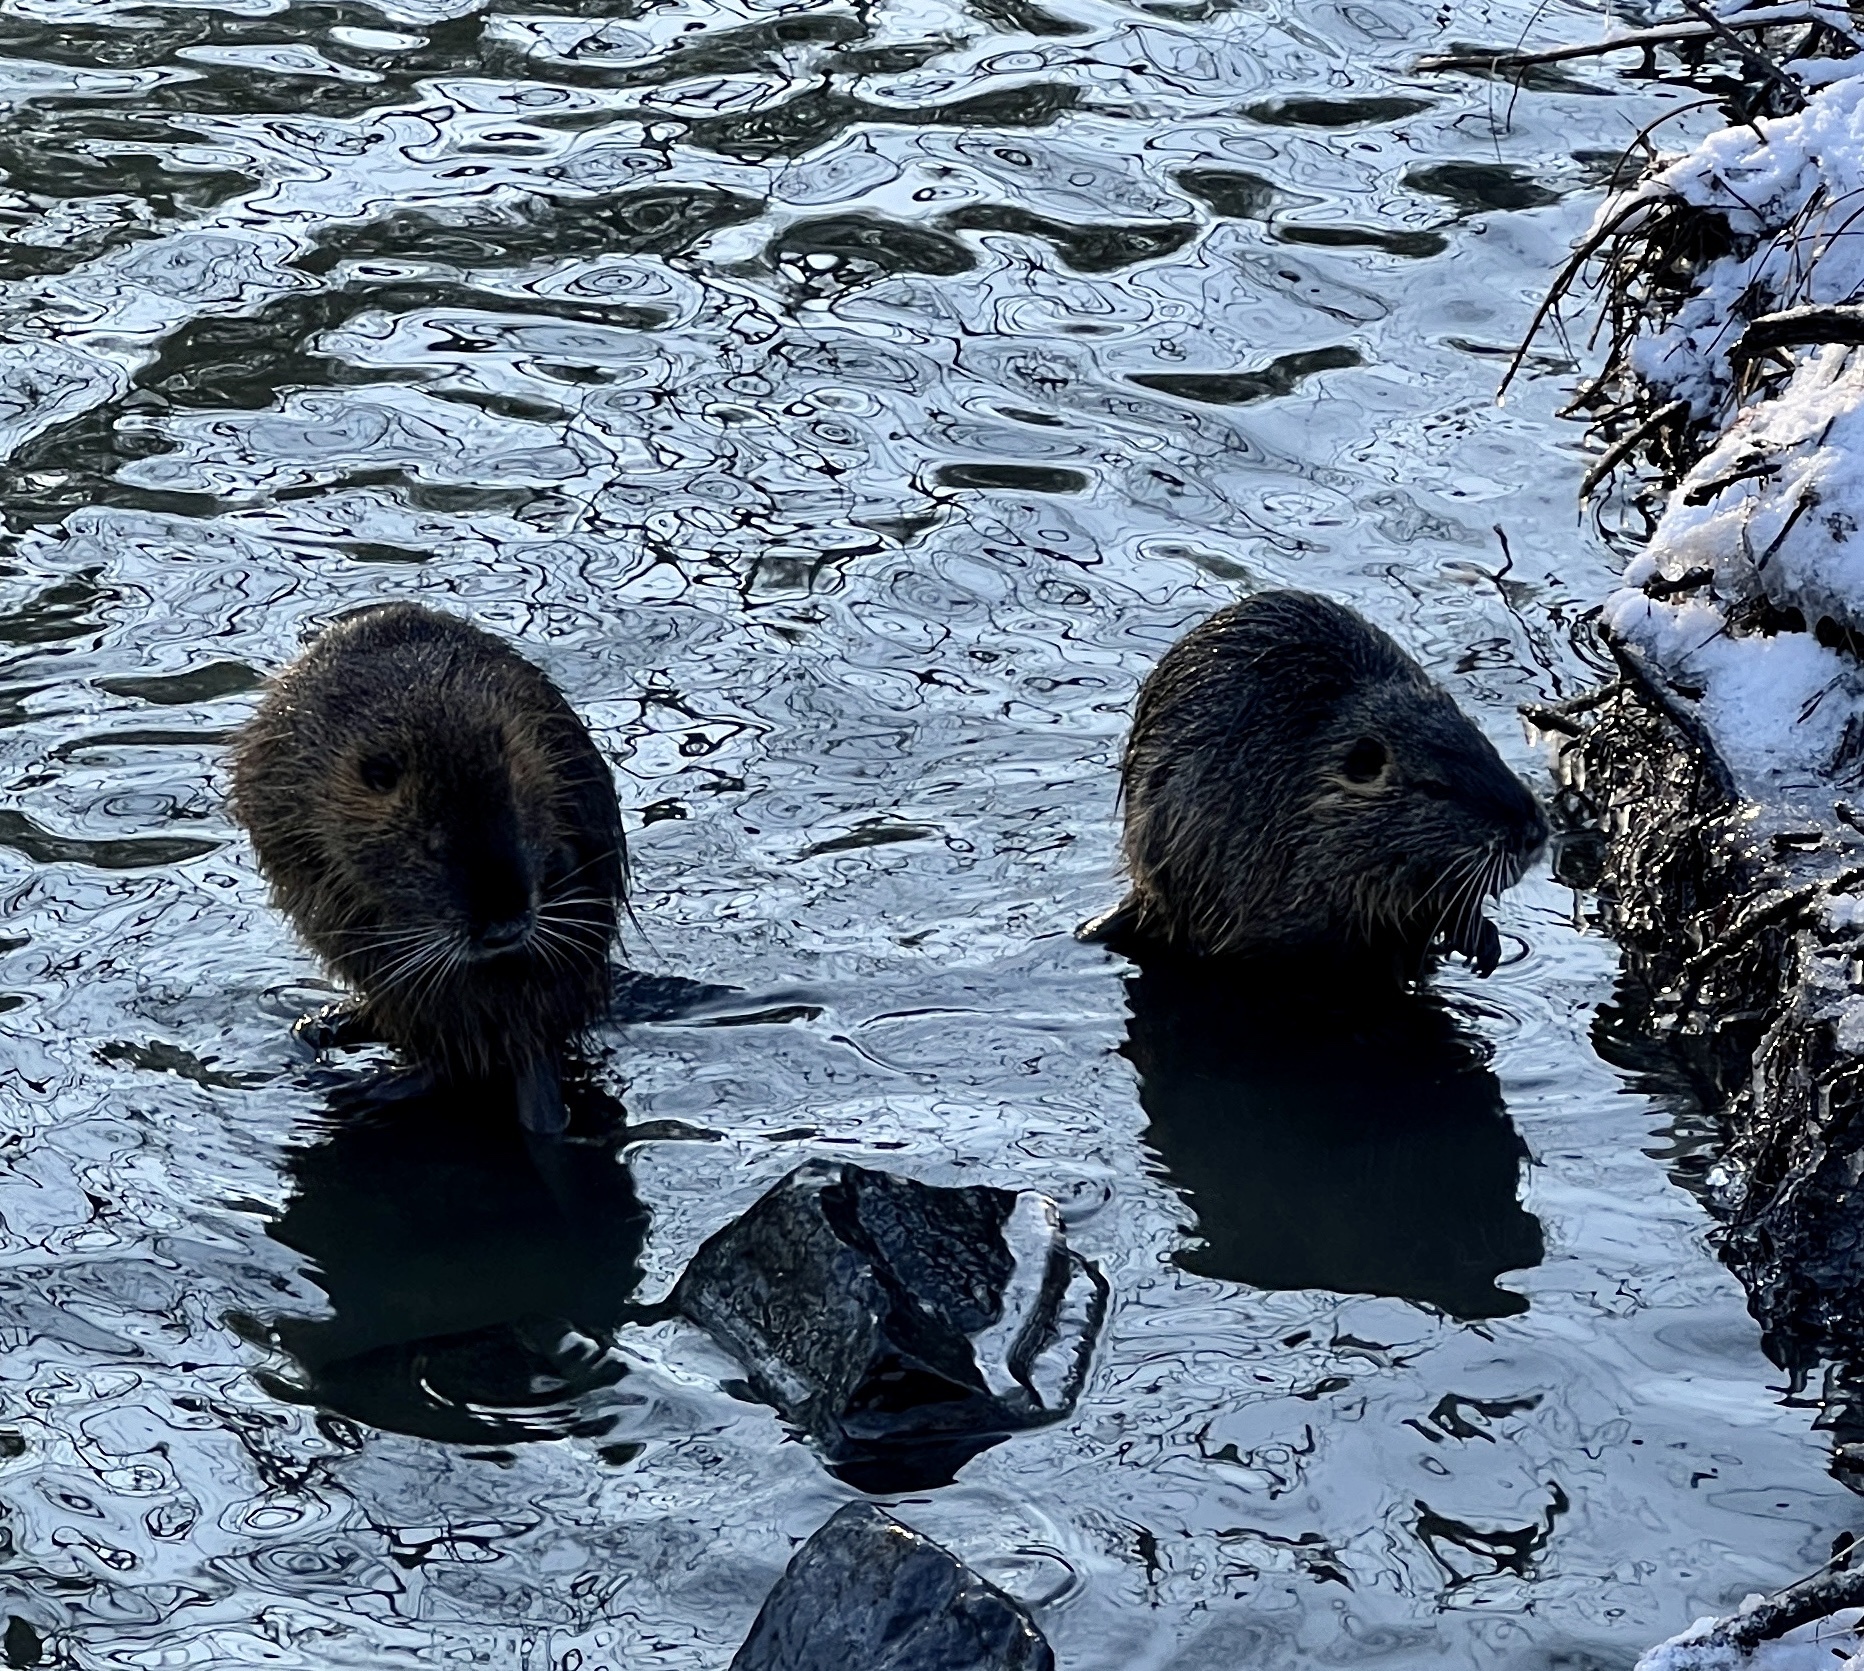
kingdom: Animalia
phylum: Chordata
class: Mammalia
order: Rodentia
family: Myocastoridae
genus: Myocastor
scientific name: Myocastor coypus
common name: Coypu
